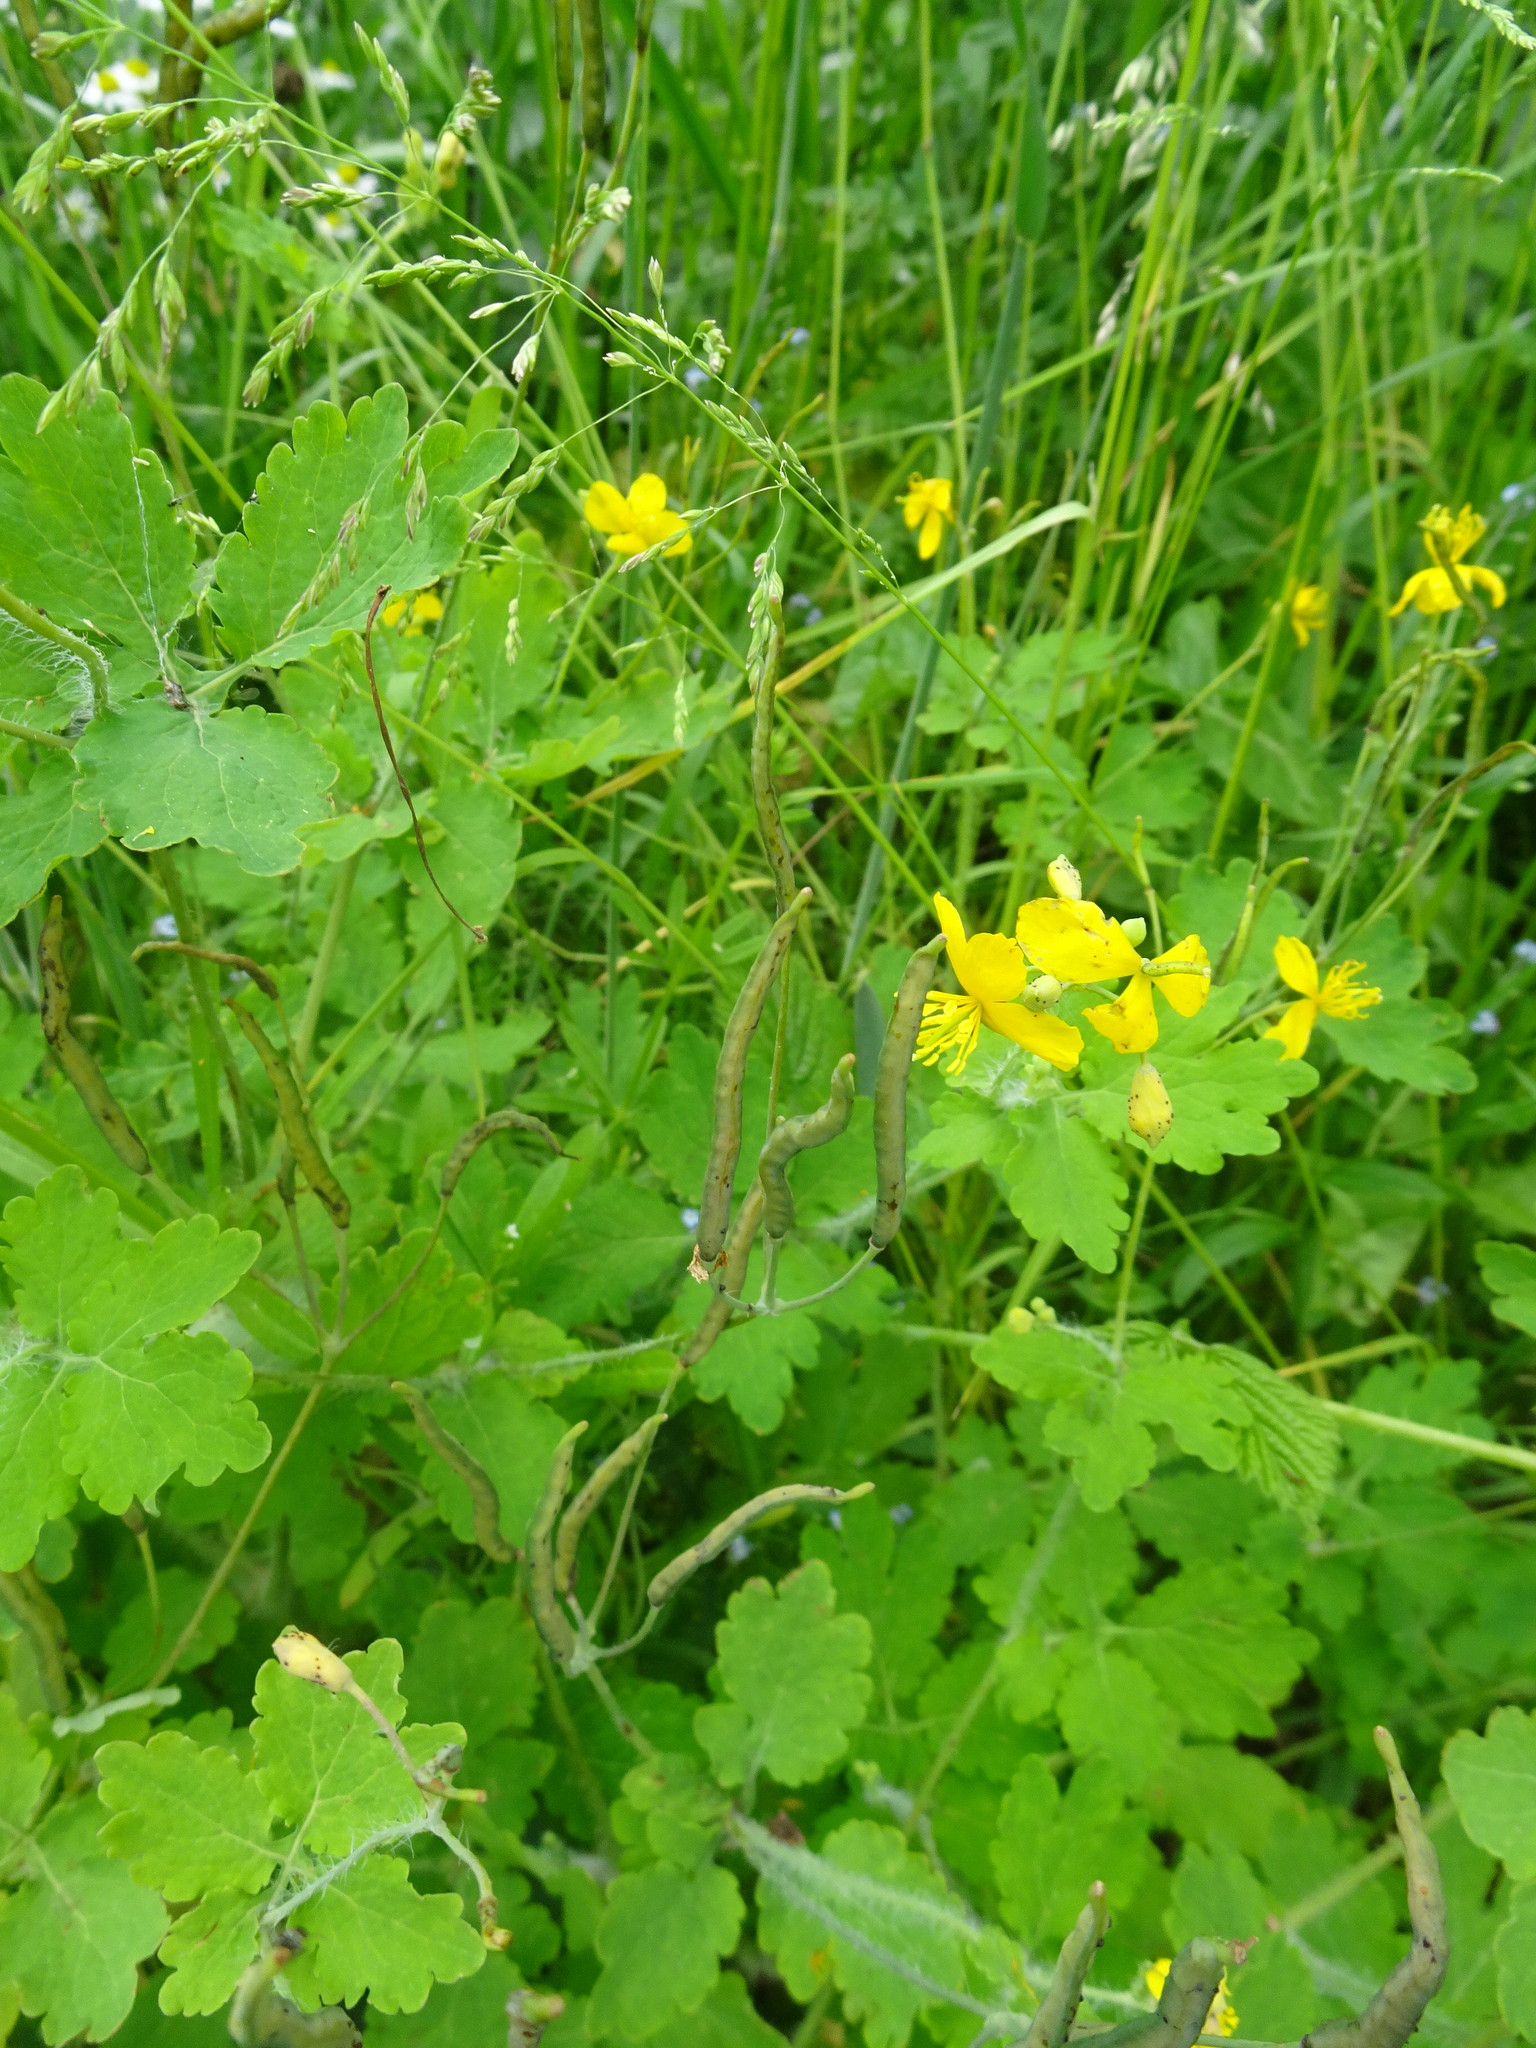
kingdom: Plantae
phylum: Tracheophyta
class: Magnoliopsida
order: Ranunculales
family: Papaveraceae
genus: Chelidonium
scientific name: Chelidonium majus
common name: Greater celandine
